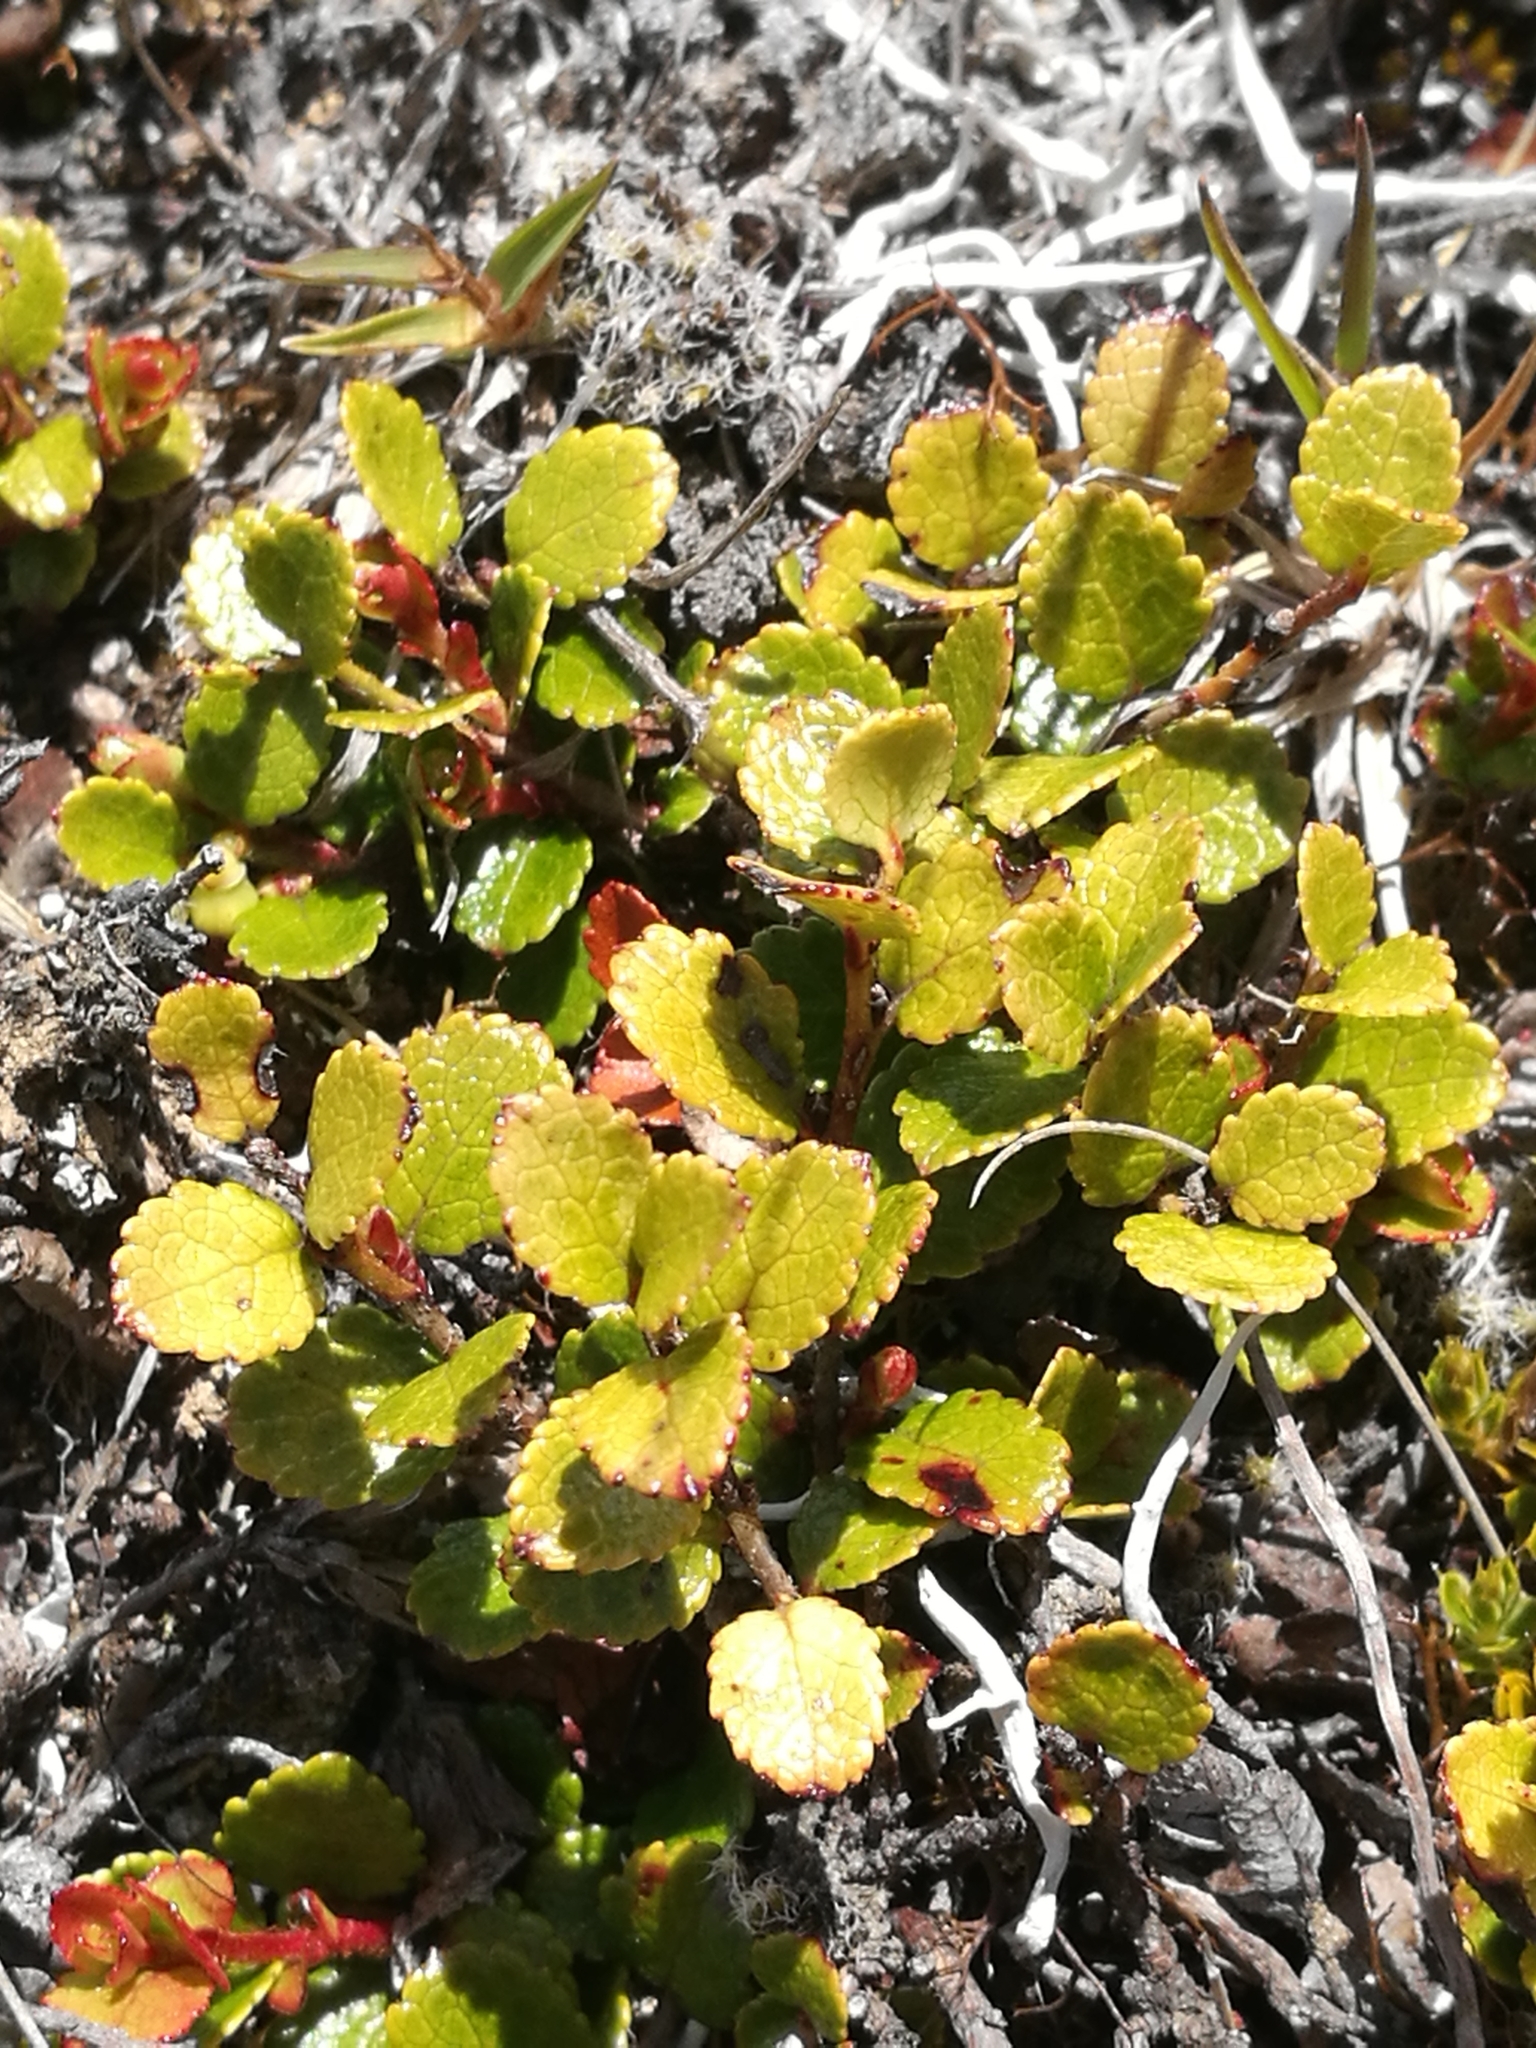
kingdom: Plantae
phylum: Tracheophyta
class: Magnoliopsida
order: Ericales
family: Ericaceae
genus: Gaultheria
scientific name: Gaultheria depressa
